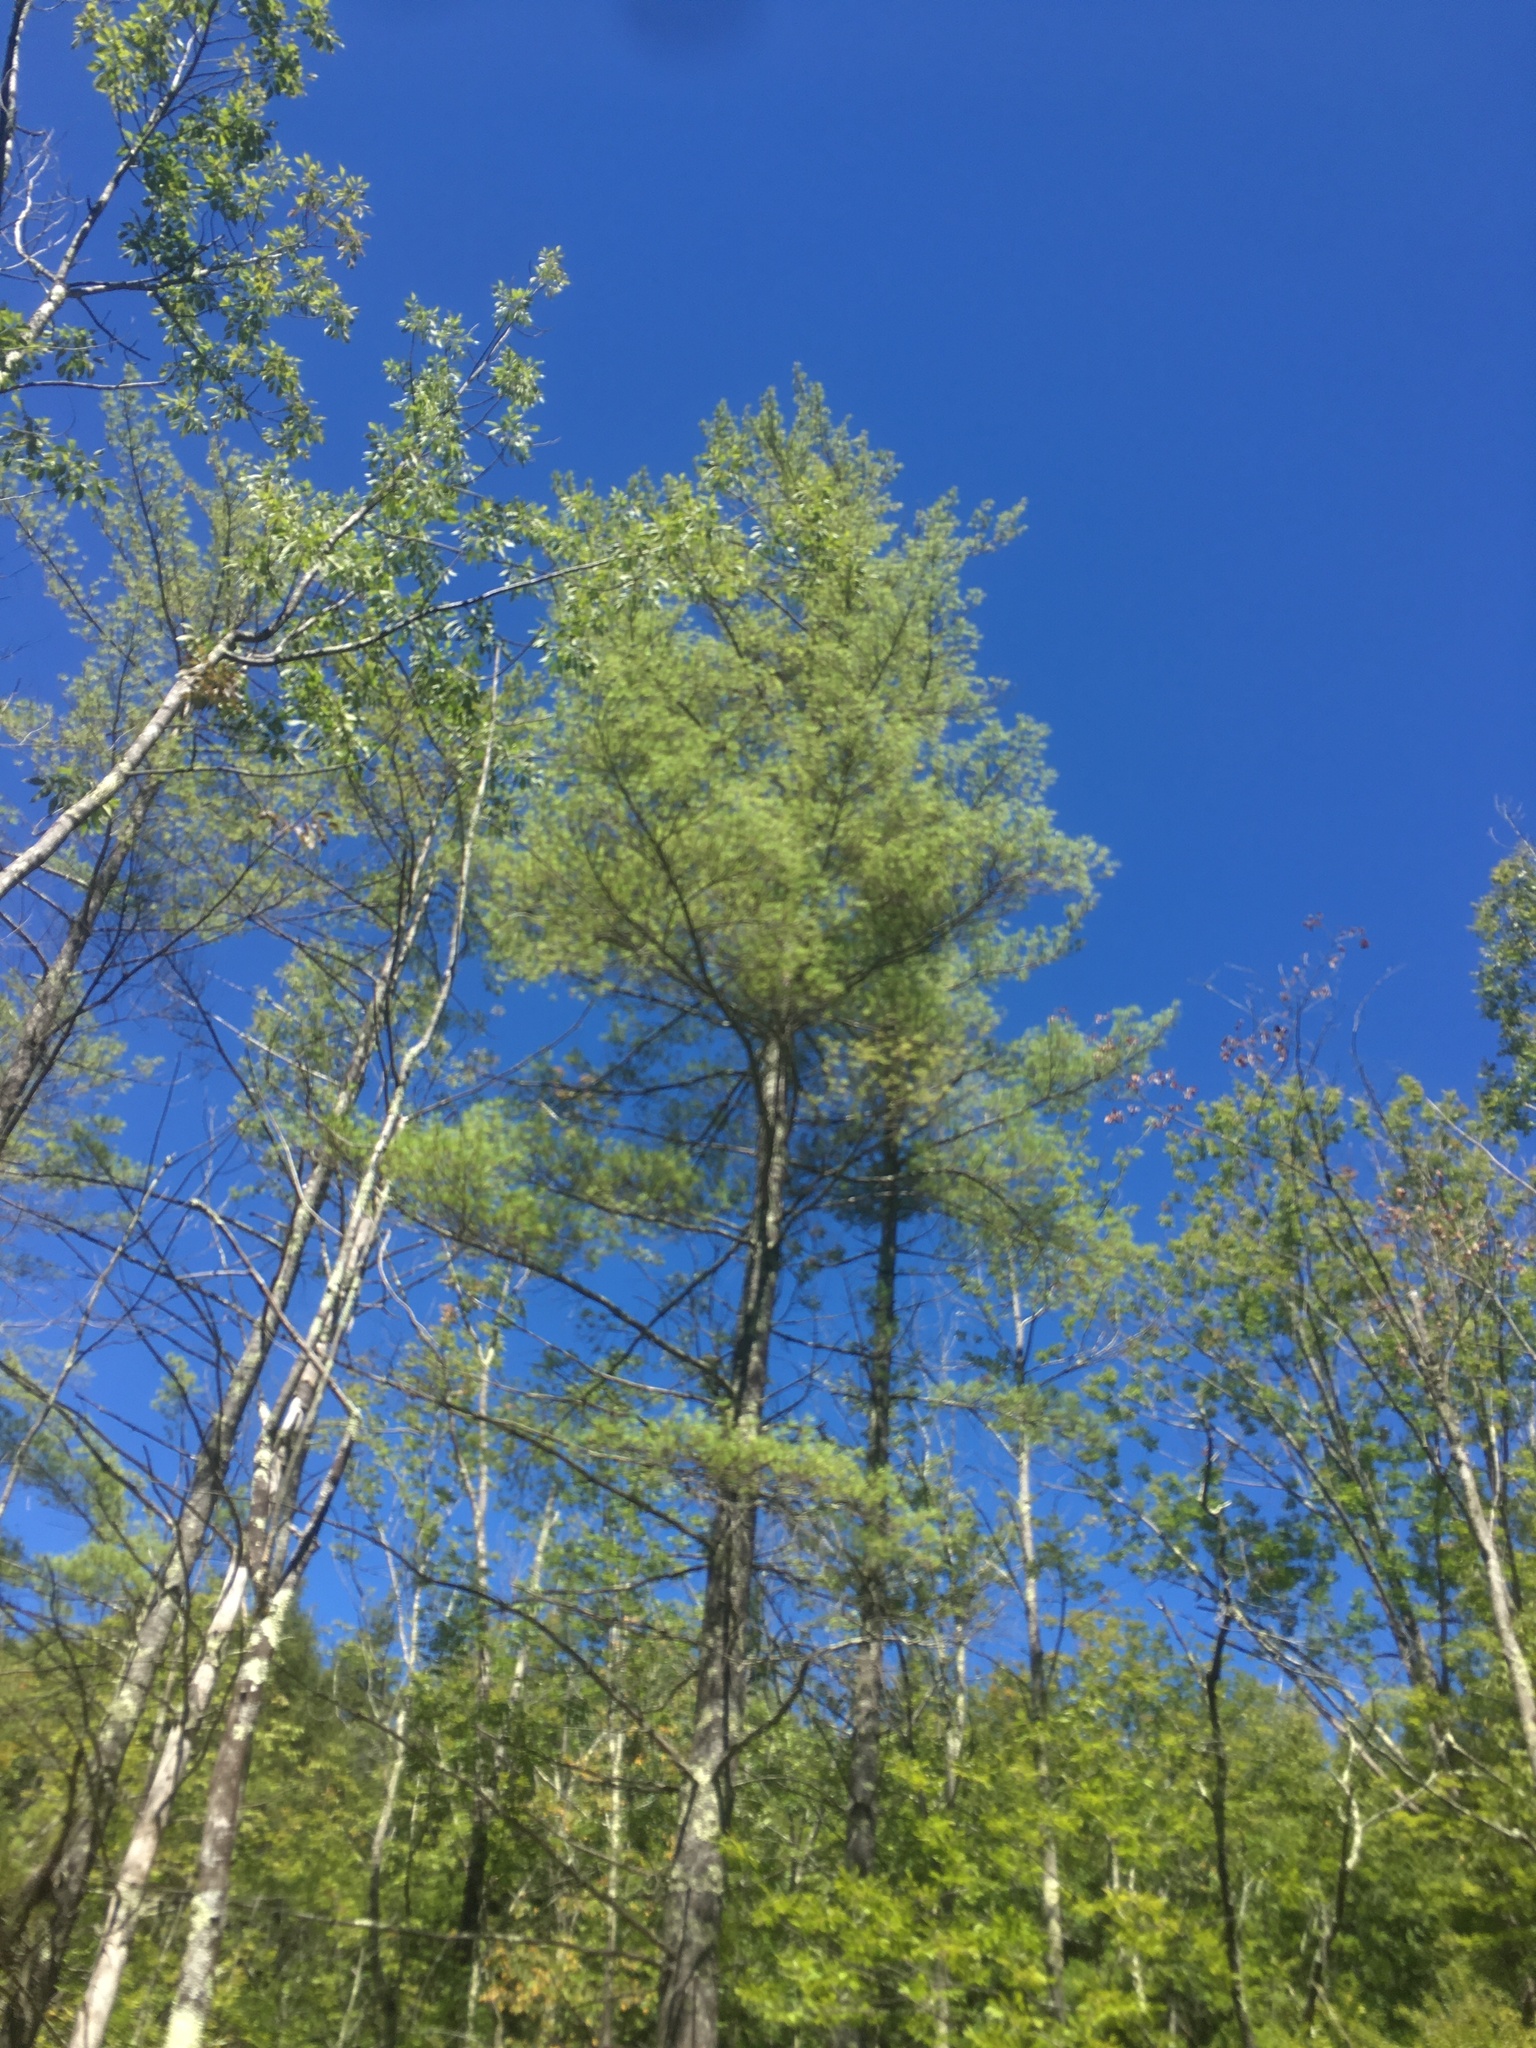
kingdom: Plantae
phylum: Tracheophyta
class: Pinopsida
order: Pinales
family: Pinaceae
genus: Pinus
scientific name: Pinus strobus
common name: Weymouth pine
